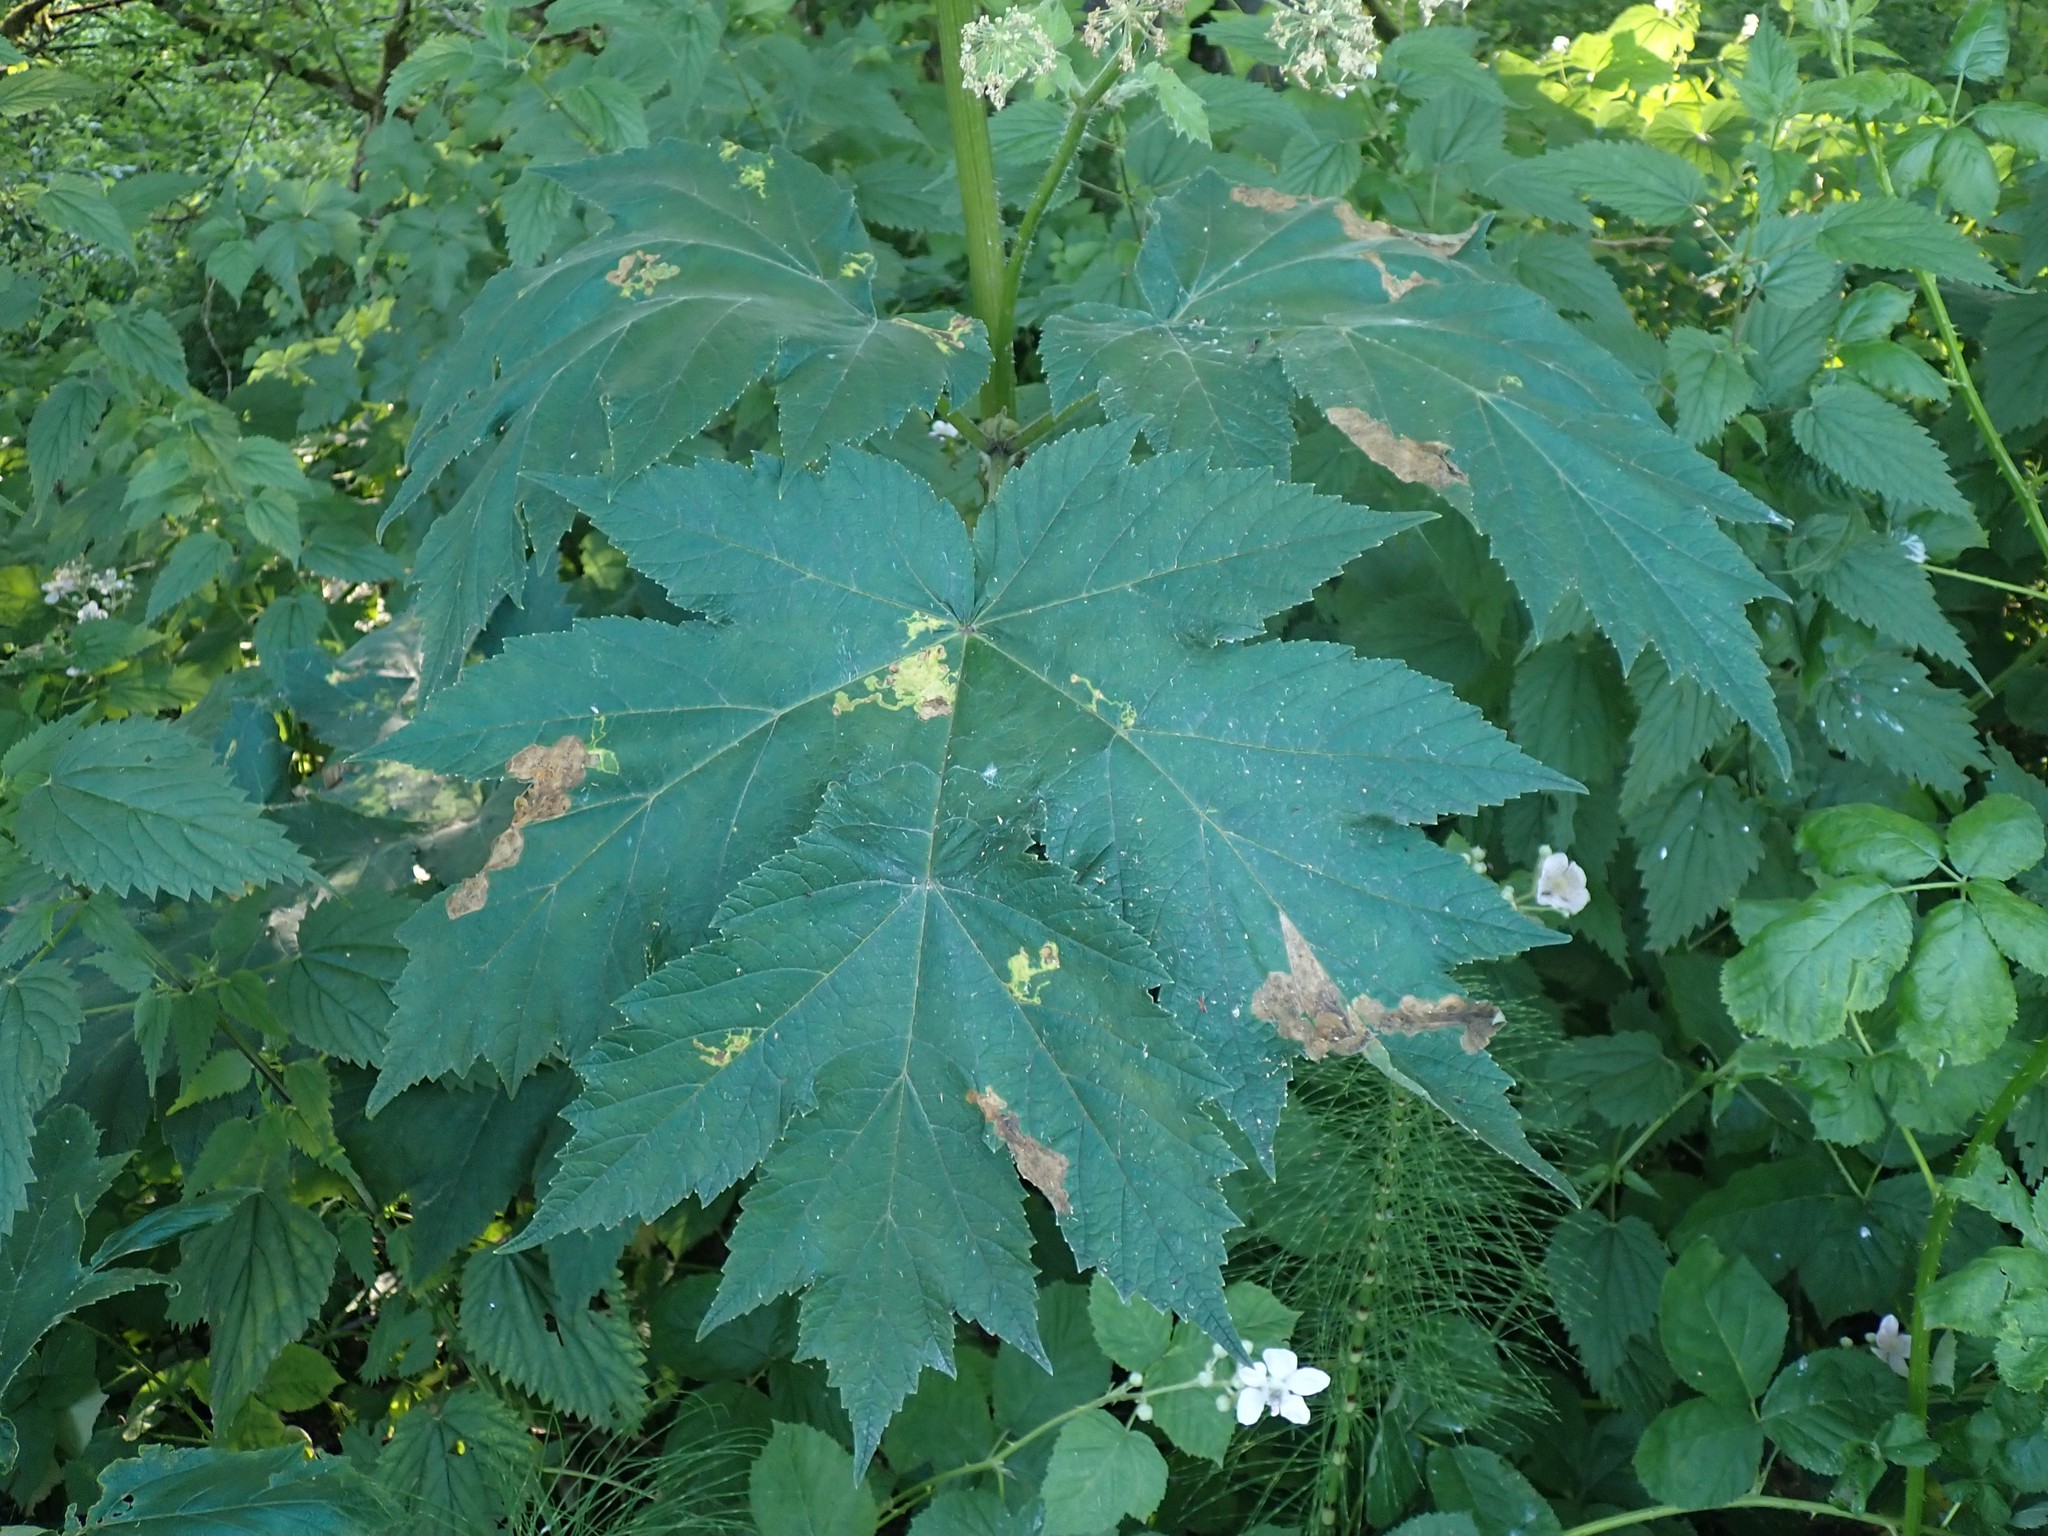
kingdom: Animalia
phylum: Arthropoda
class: Insecta
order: Diptera
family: Agromyzidae
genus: Phytomyza
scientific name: Phytomyza tlingitica
